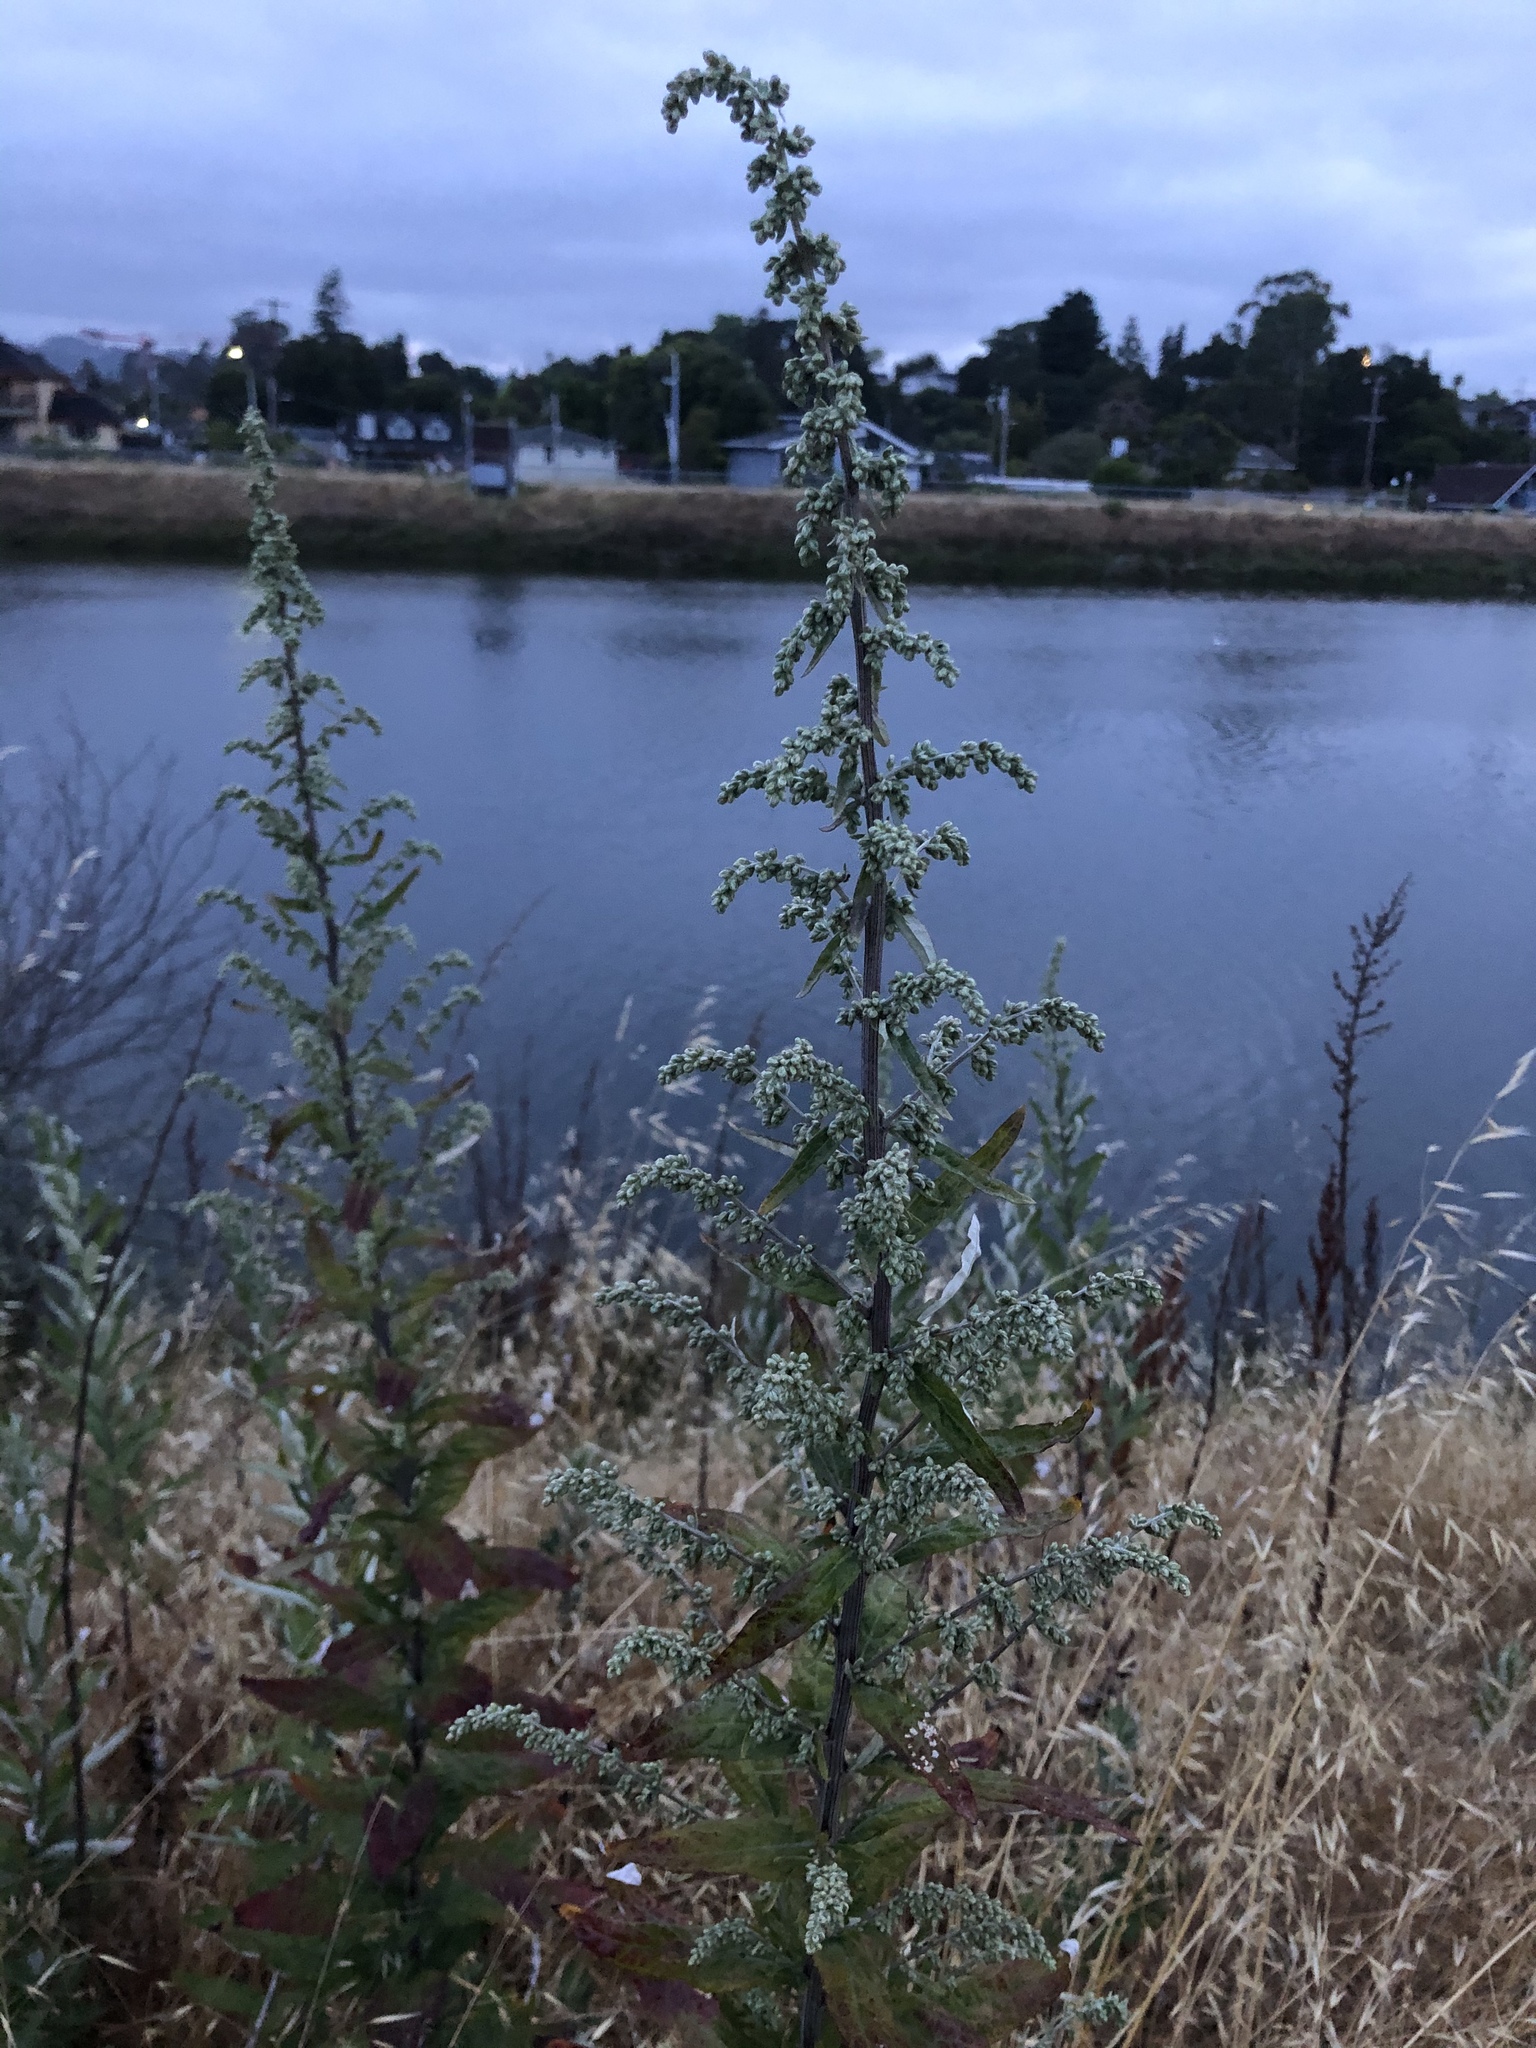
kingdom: Plantae
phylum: Tracheophyta
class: Magnoliopsida
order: Asterales
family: Asteraceae
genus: Artemisia
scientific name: Artemisia douglasiana
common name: Northwest mugwort
